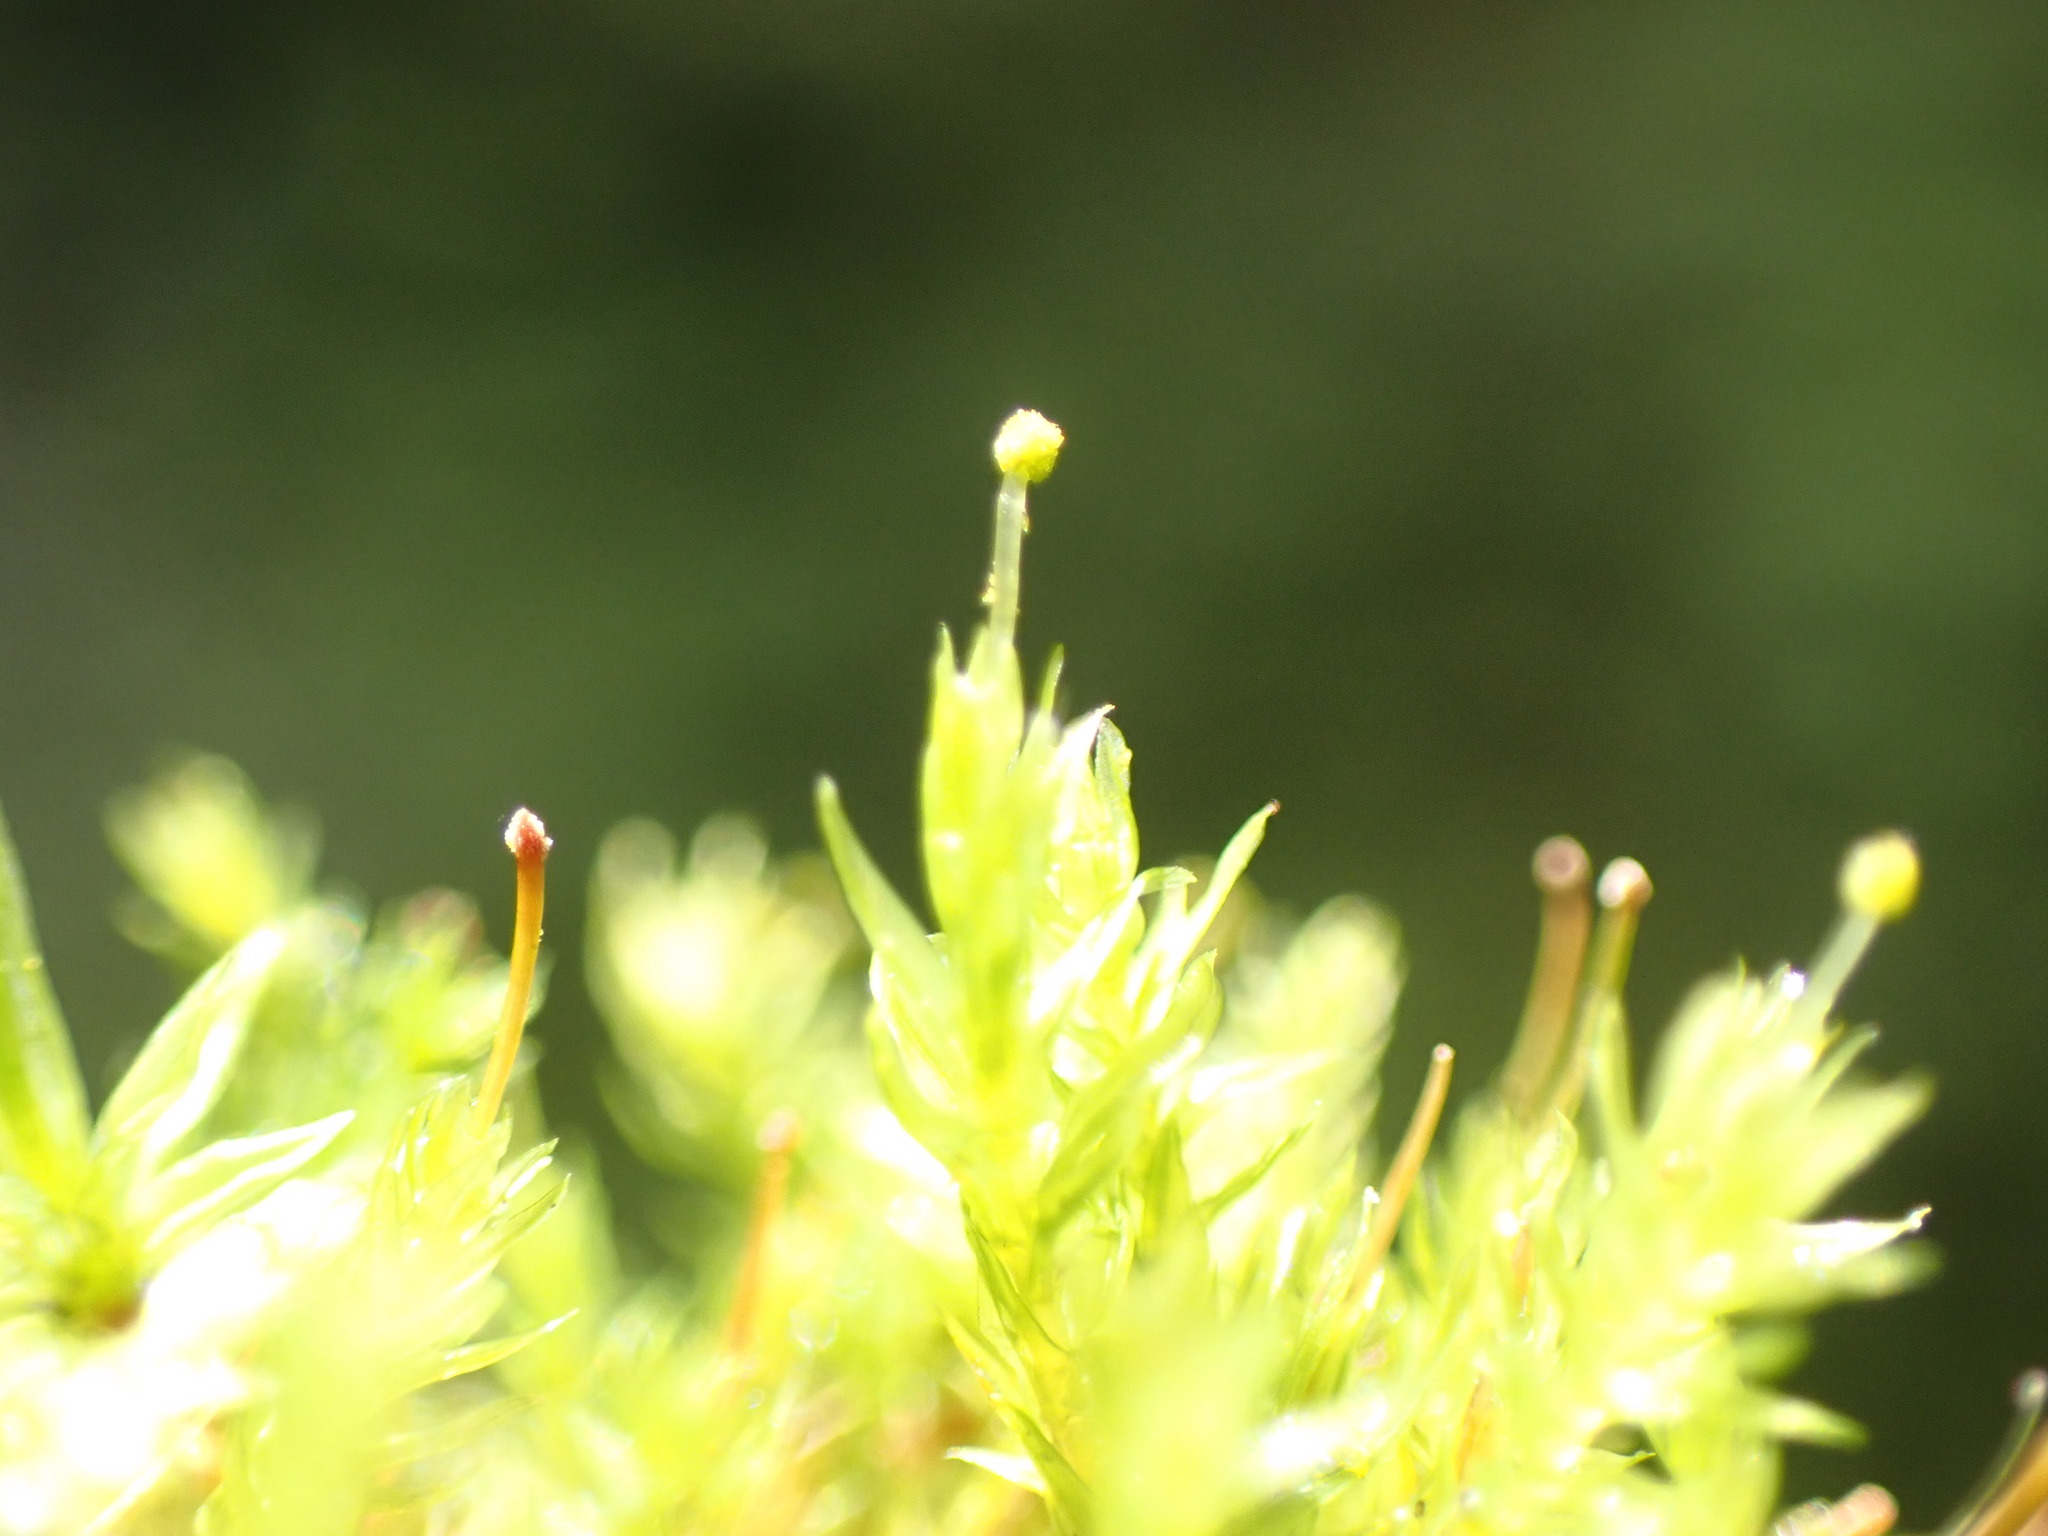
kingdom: Plantae
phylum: Bryophyta
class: Bryopsida
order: Aulacomniales
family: Aulacomniaceae
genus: Aulacomnium
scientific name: Aulacomnium androgynum
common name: Little groove moss
